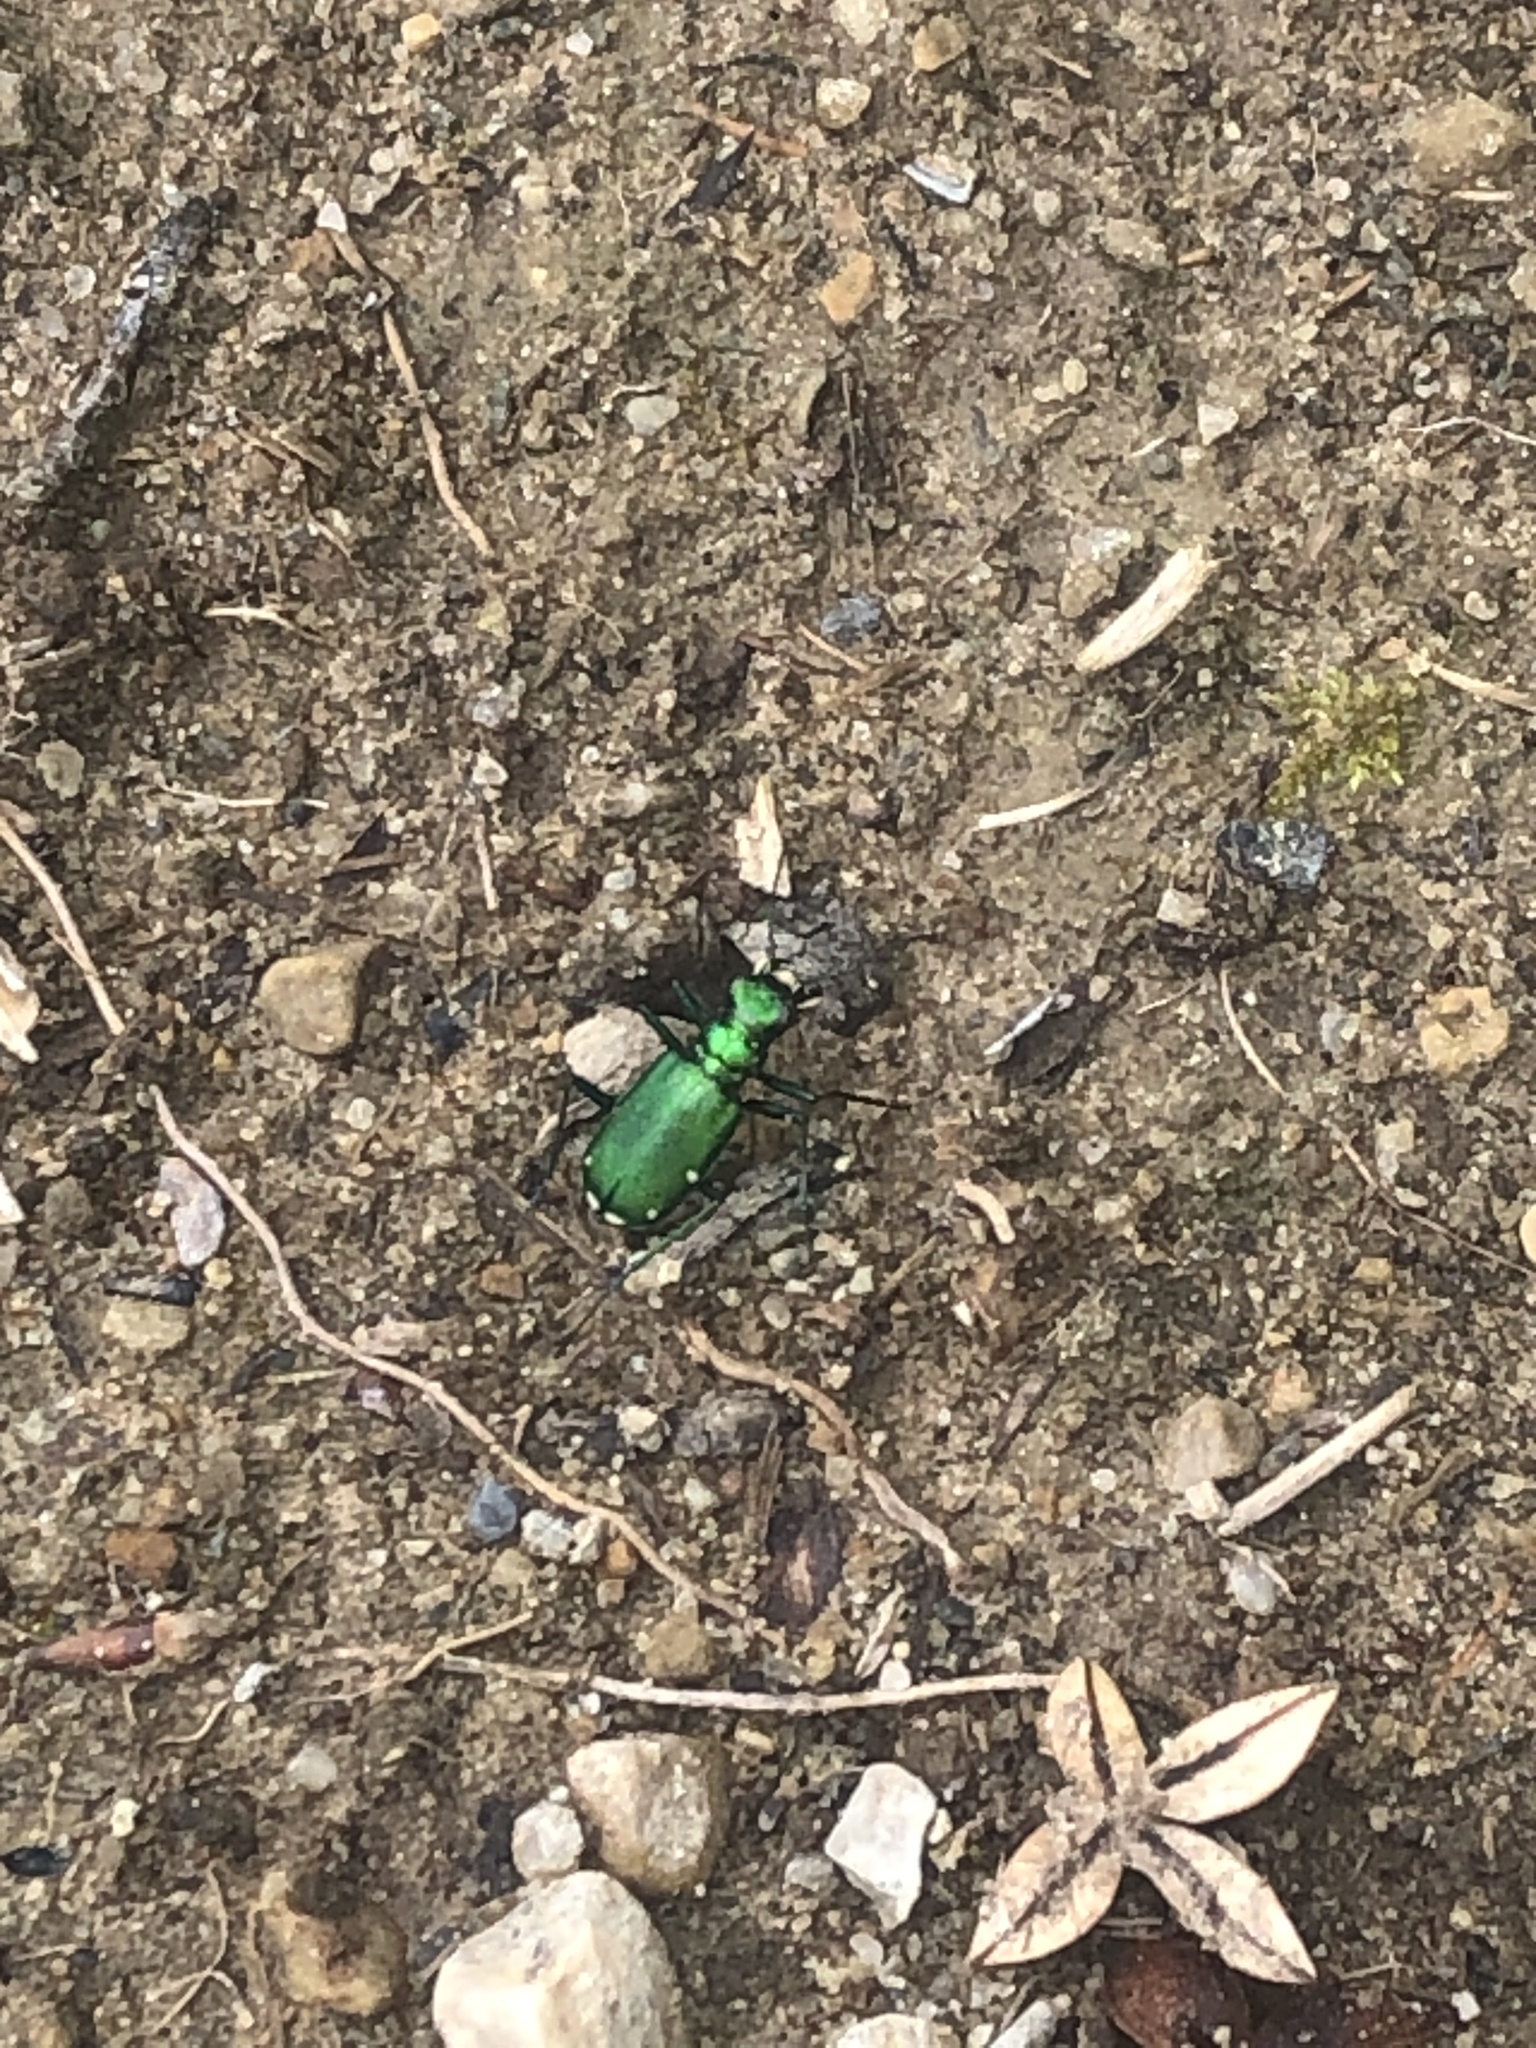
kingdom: Animalia
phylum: Arthropoda
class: Insecta
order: Coleoptera
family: Carabidae
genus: Cicindela
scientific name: Cicindela sexguttata
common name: Six-spotted tiger beetle
